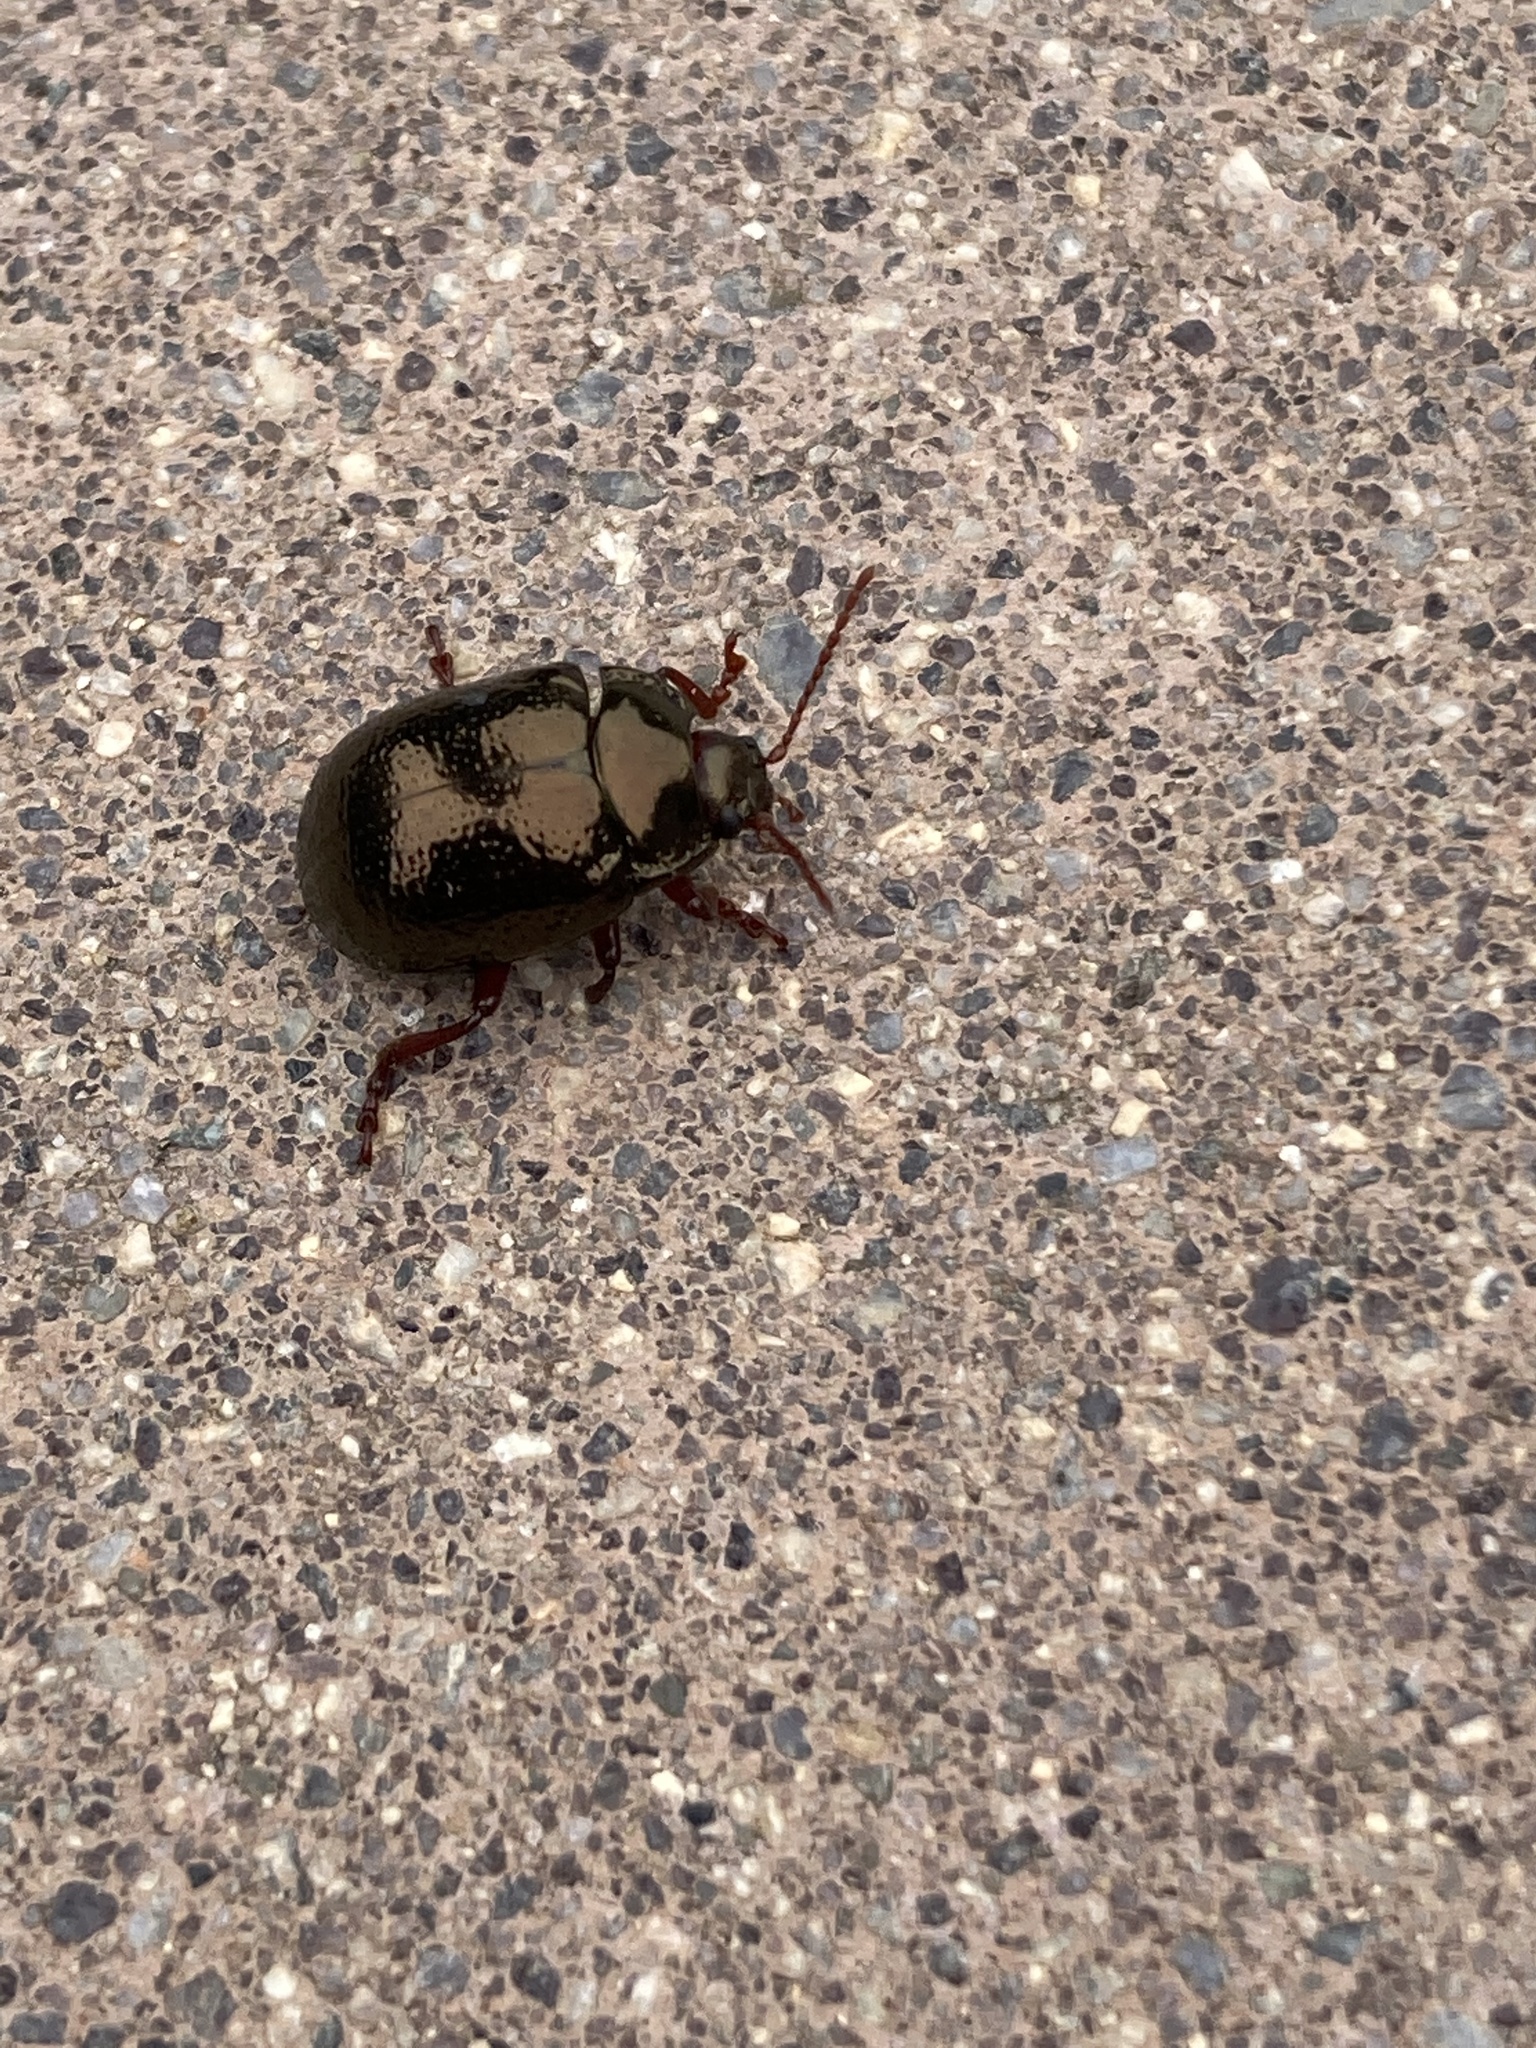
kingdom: Animalia
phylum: Arthropoda
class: Insecta
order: Coleoptera
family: Chrysomelidae
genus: Chrysolina
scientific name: Chrysolina bankii
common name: Leaf beetle
